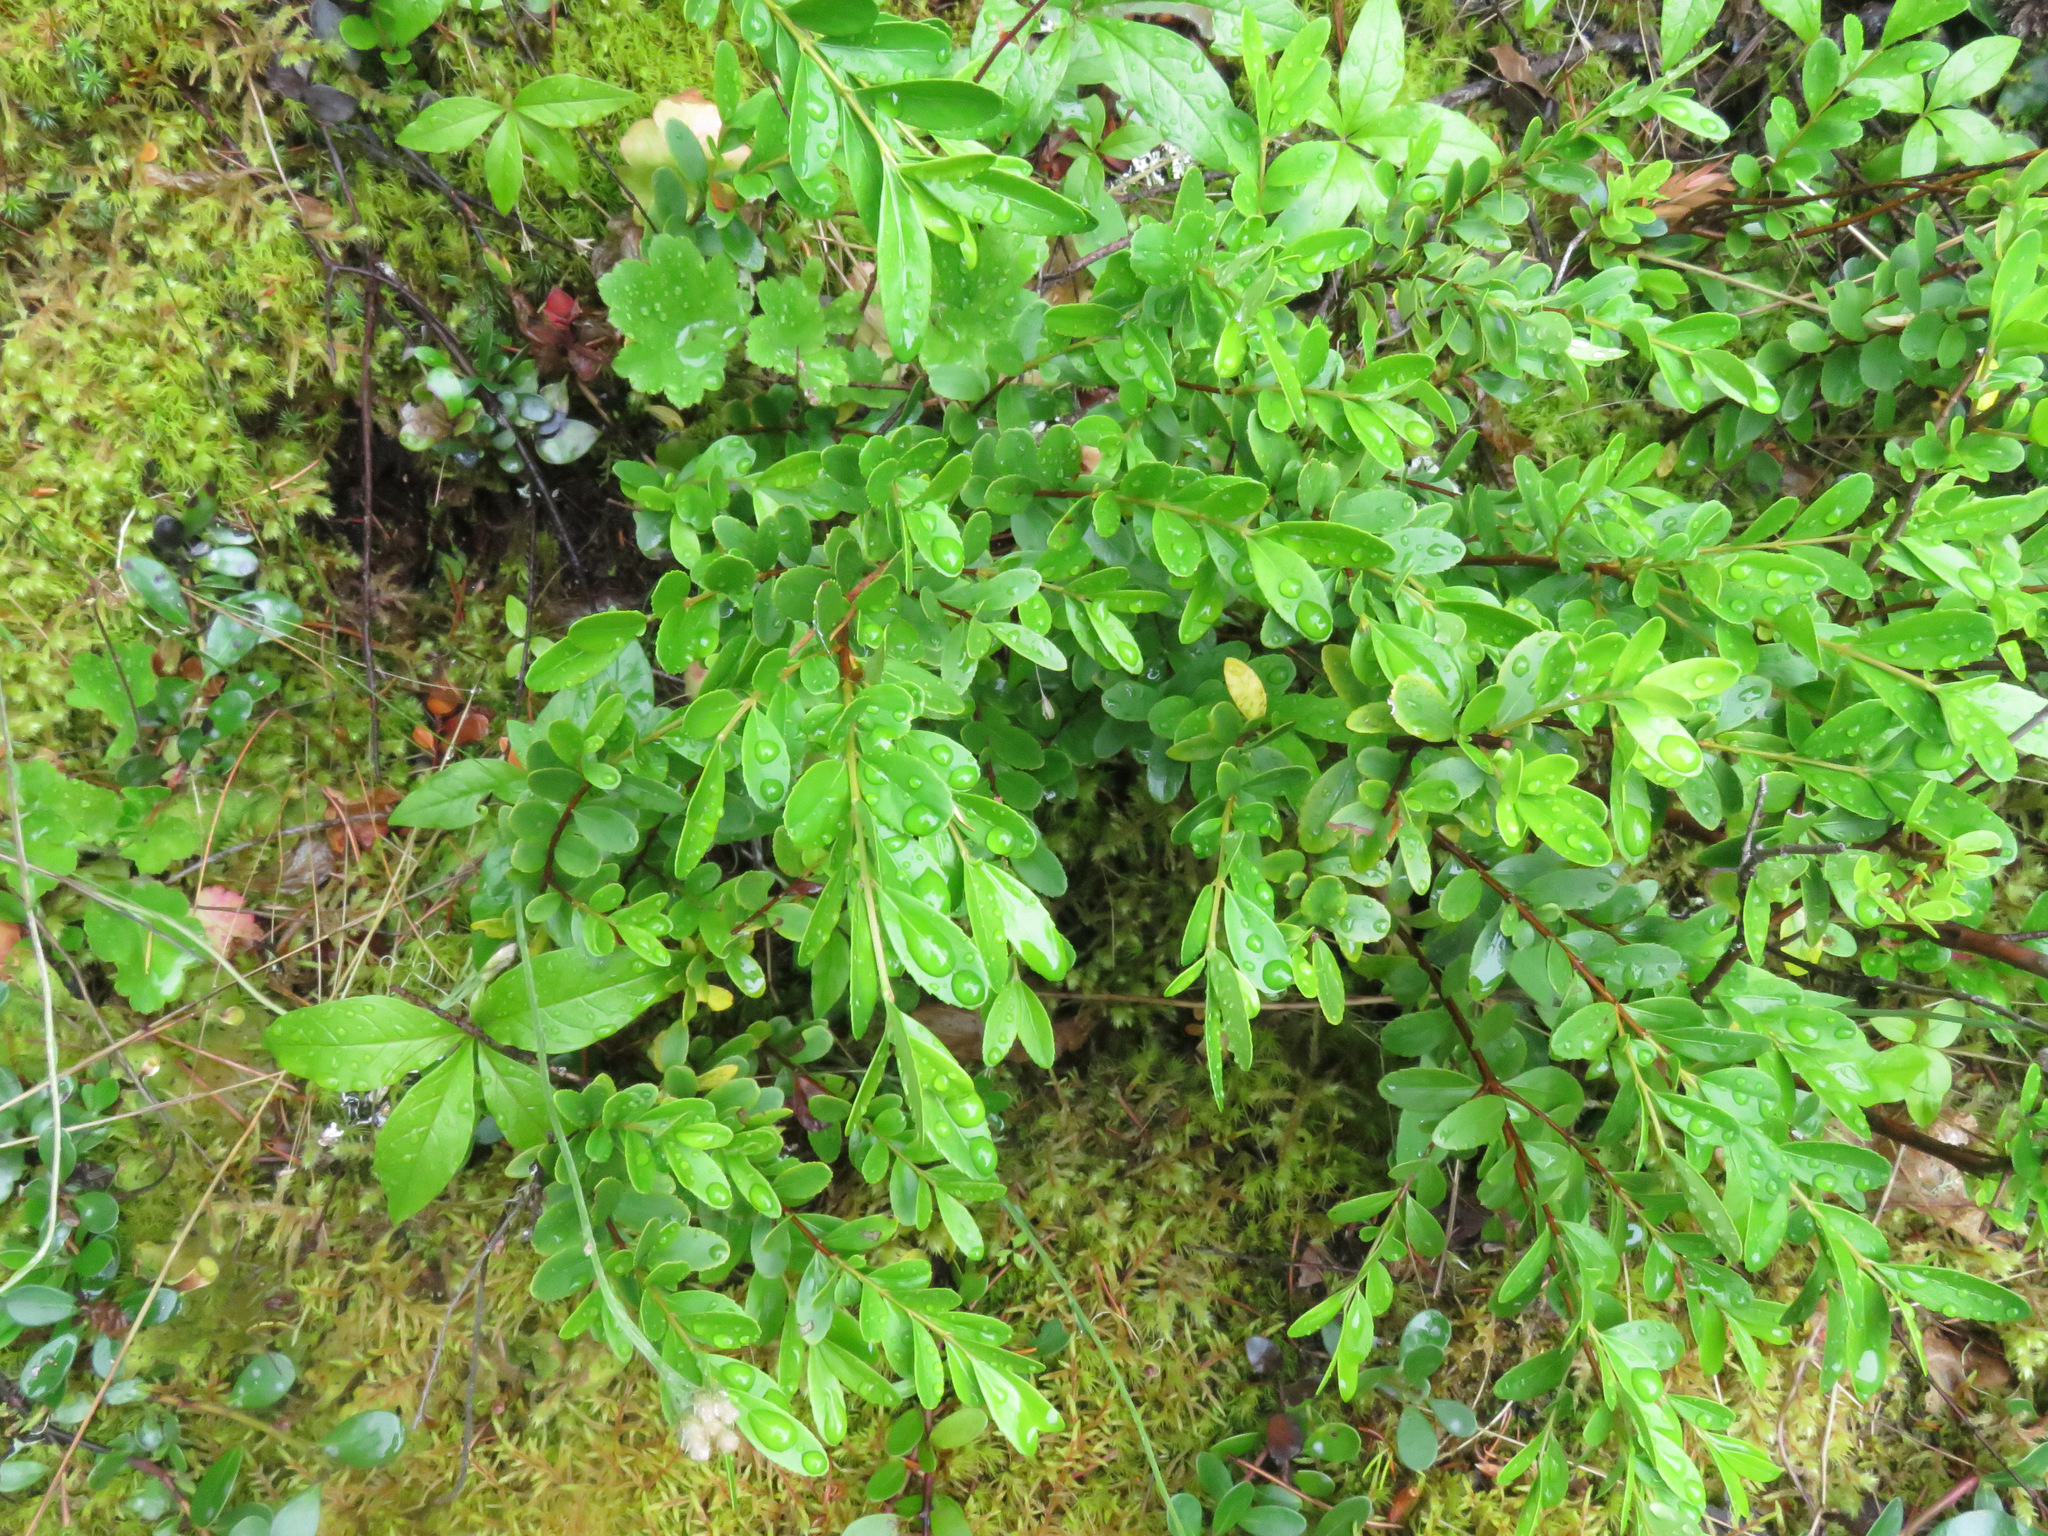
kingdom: Plantae
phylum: Tracheophyta
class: Magnoliopsida
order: Celastrales
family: Celastraceae
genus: Paxistima
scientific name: Paxistima myrsinites
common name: Mountain-lover
